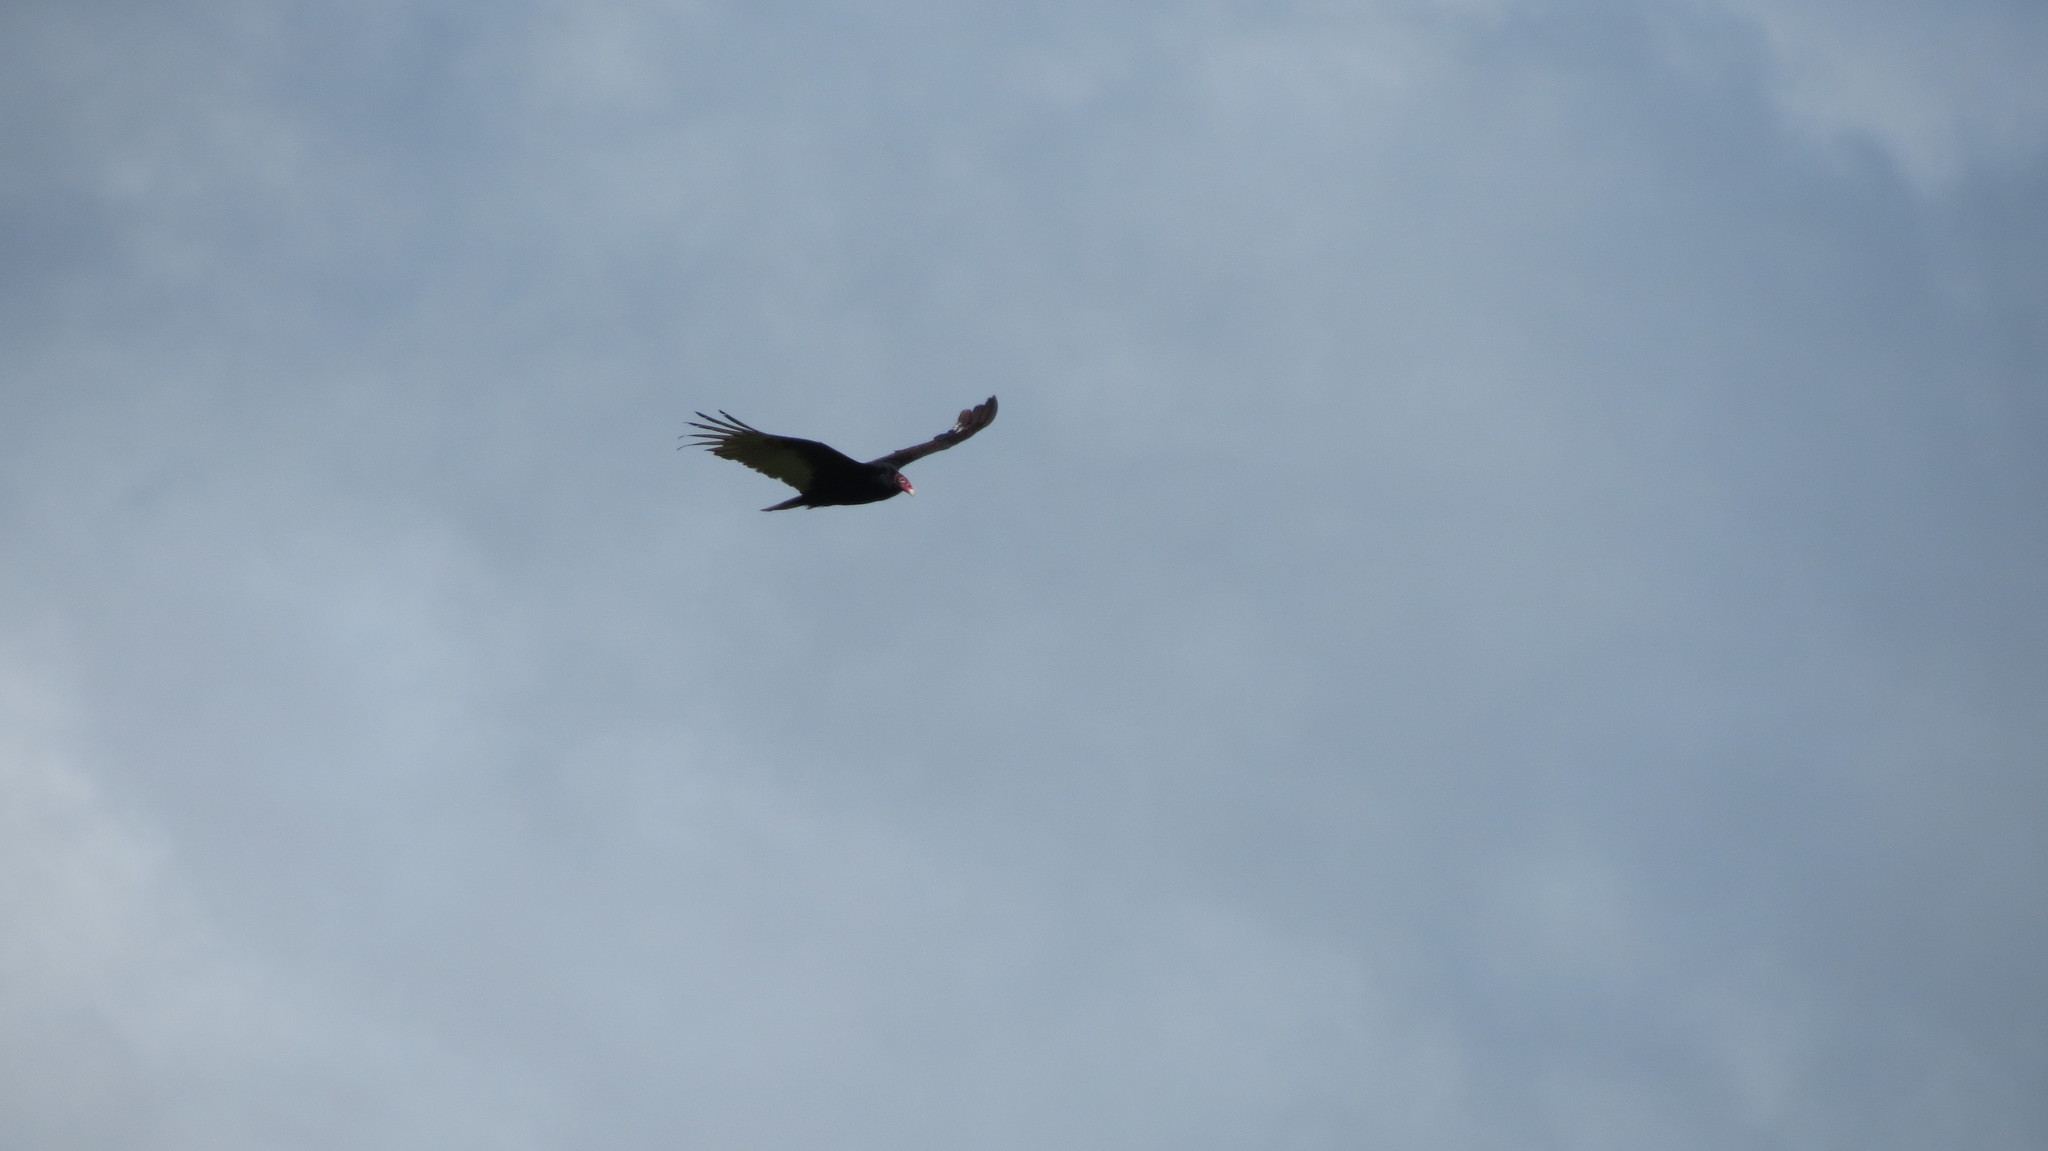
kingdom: Animalia
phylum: Chordata
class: Aves
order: Accipitriformes
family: Cathartidae
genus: Cathartes
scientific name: Cathartes aura
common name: Turkey vulture
